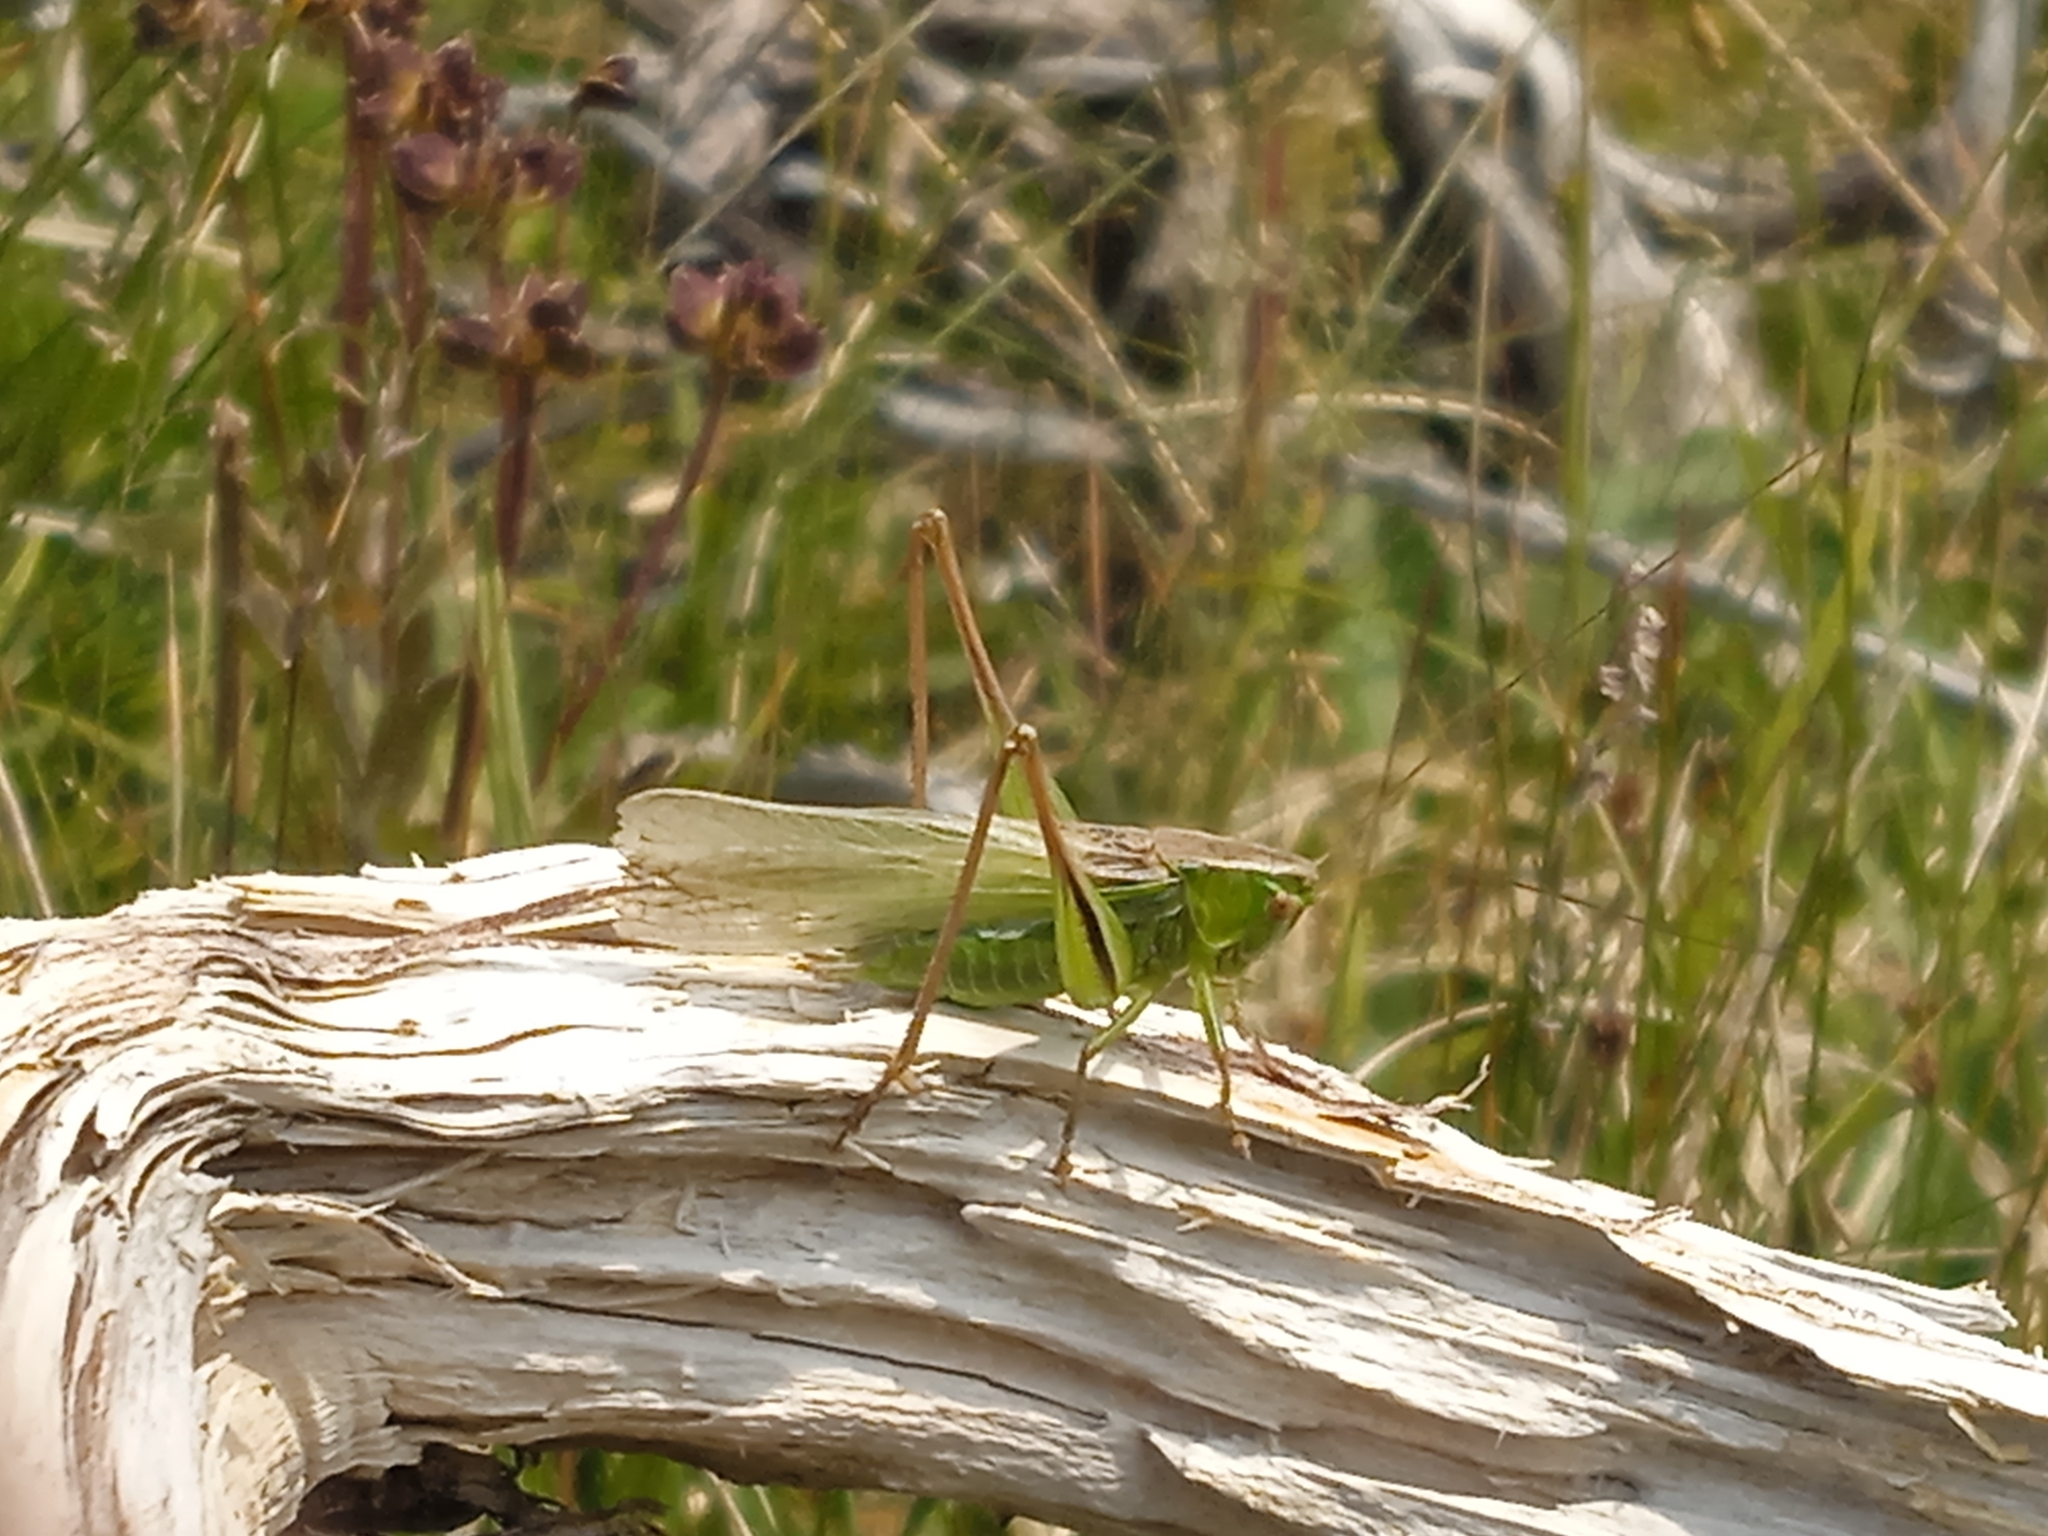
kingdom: Animalia
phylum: Arthropoda
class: Insecta
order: Orthoptera
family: Tettigoniidae
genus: Bicolorana
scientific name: Bicolorana bicolor
